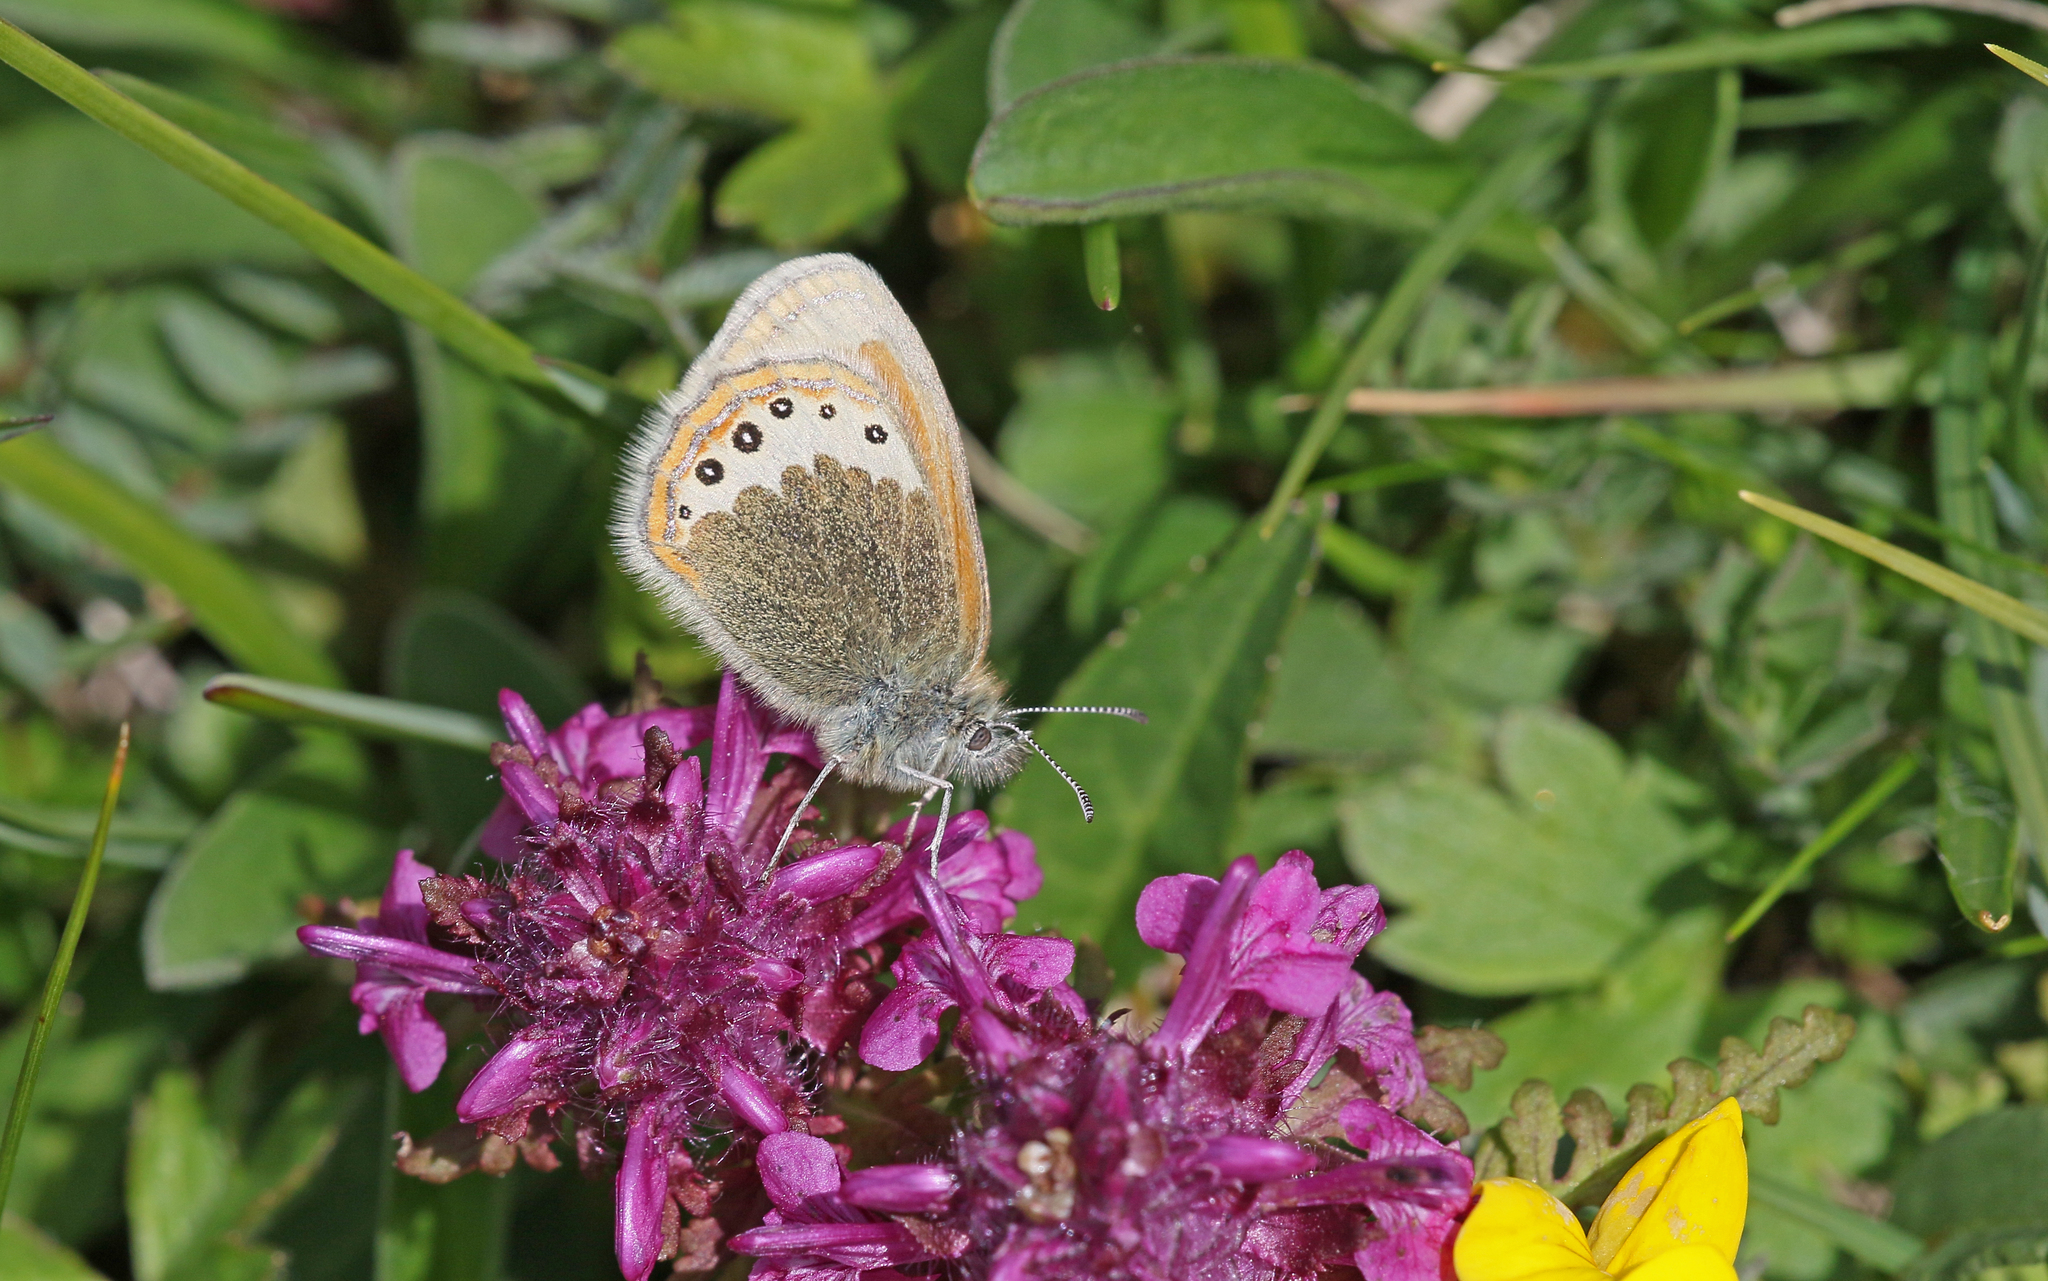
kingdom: Animalia
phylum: Arthropoda
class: Insecta
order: Lepidoptera
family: Nymphalidae
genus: Coenonympha
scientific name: Coenonympha
